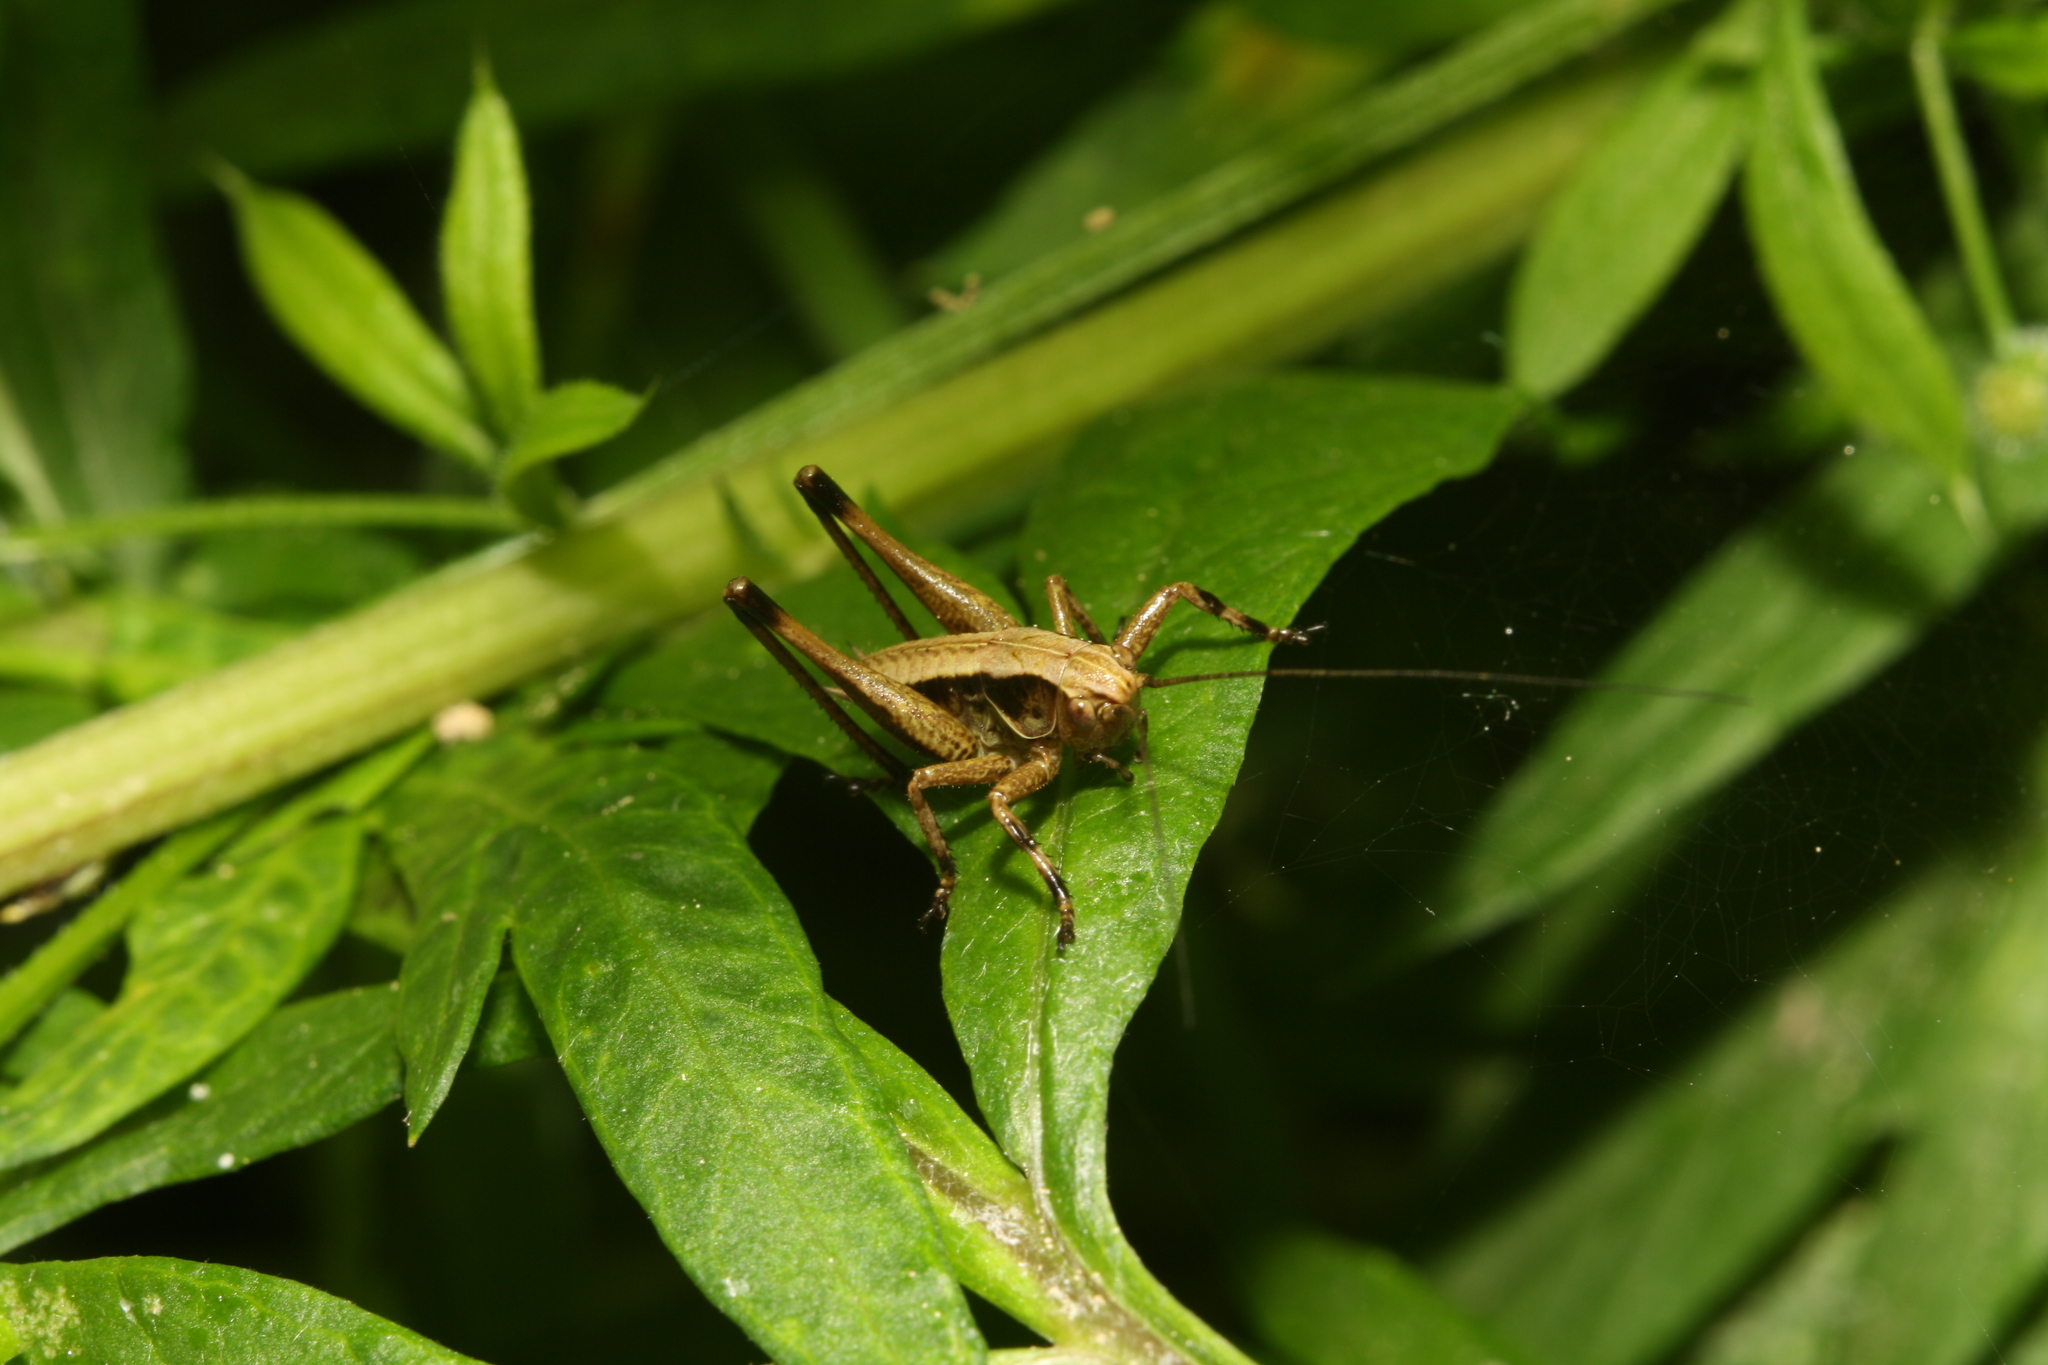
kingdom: Animalia
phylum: Arthropoda
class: Insecta
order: Orthoptera
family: Tettigoniidae
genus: Pholidoptera
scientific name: Pholidoptera griseoaptera
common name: Dark bush-cricket
